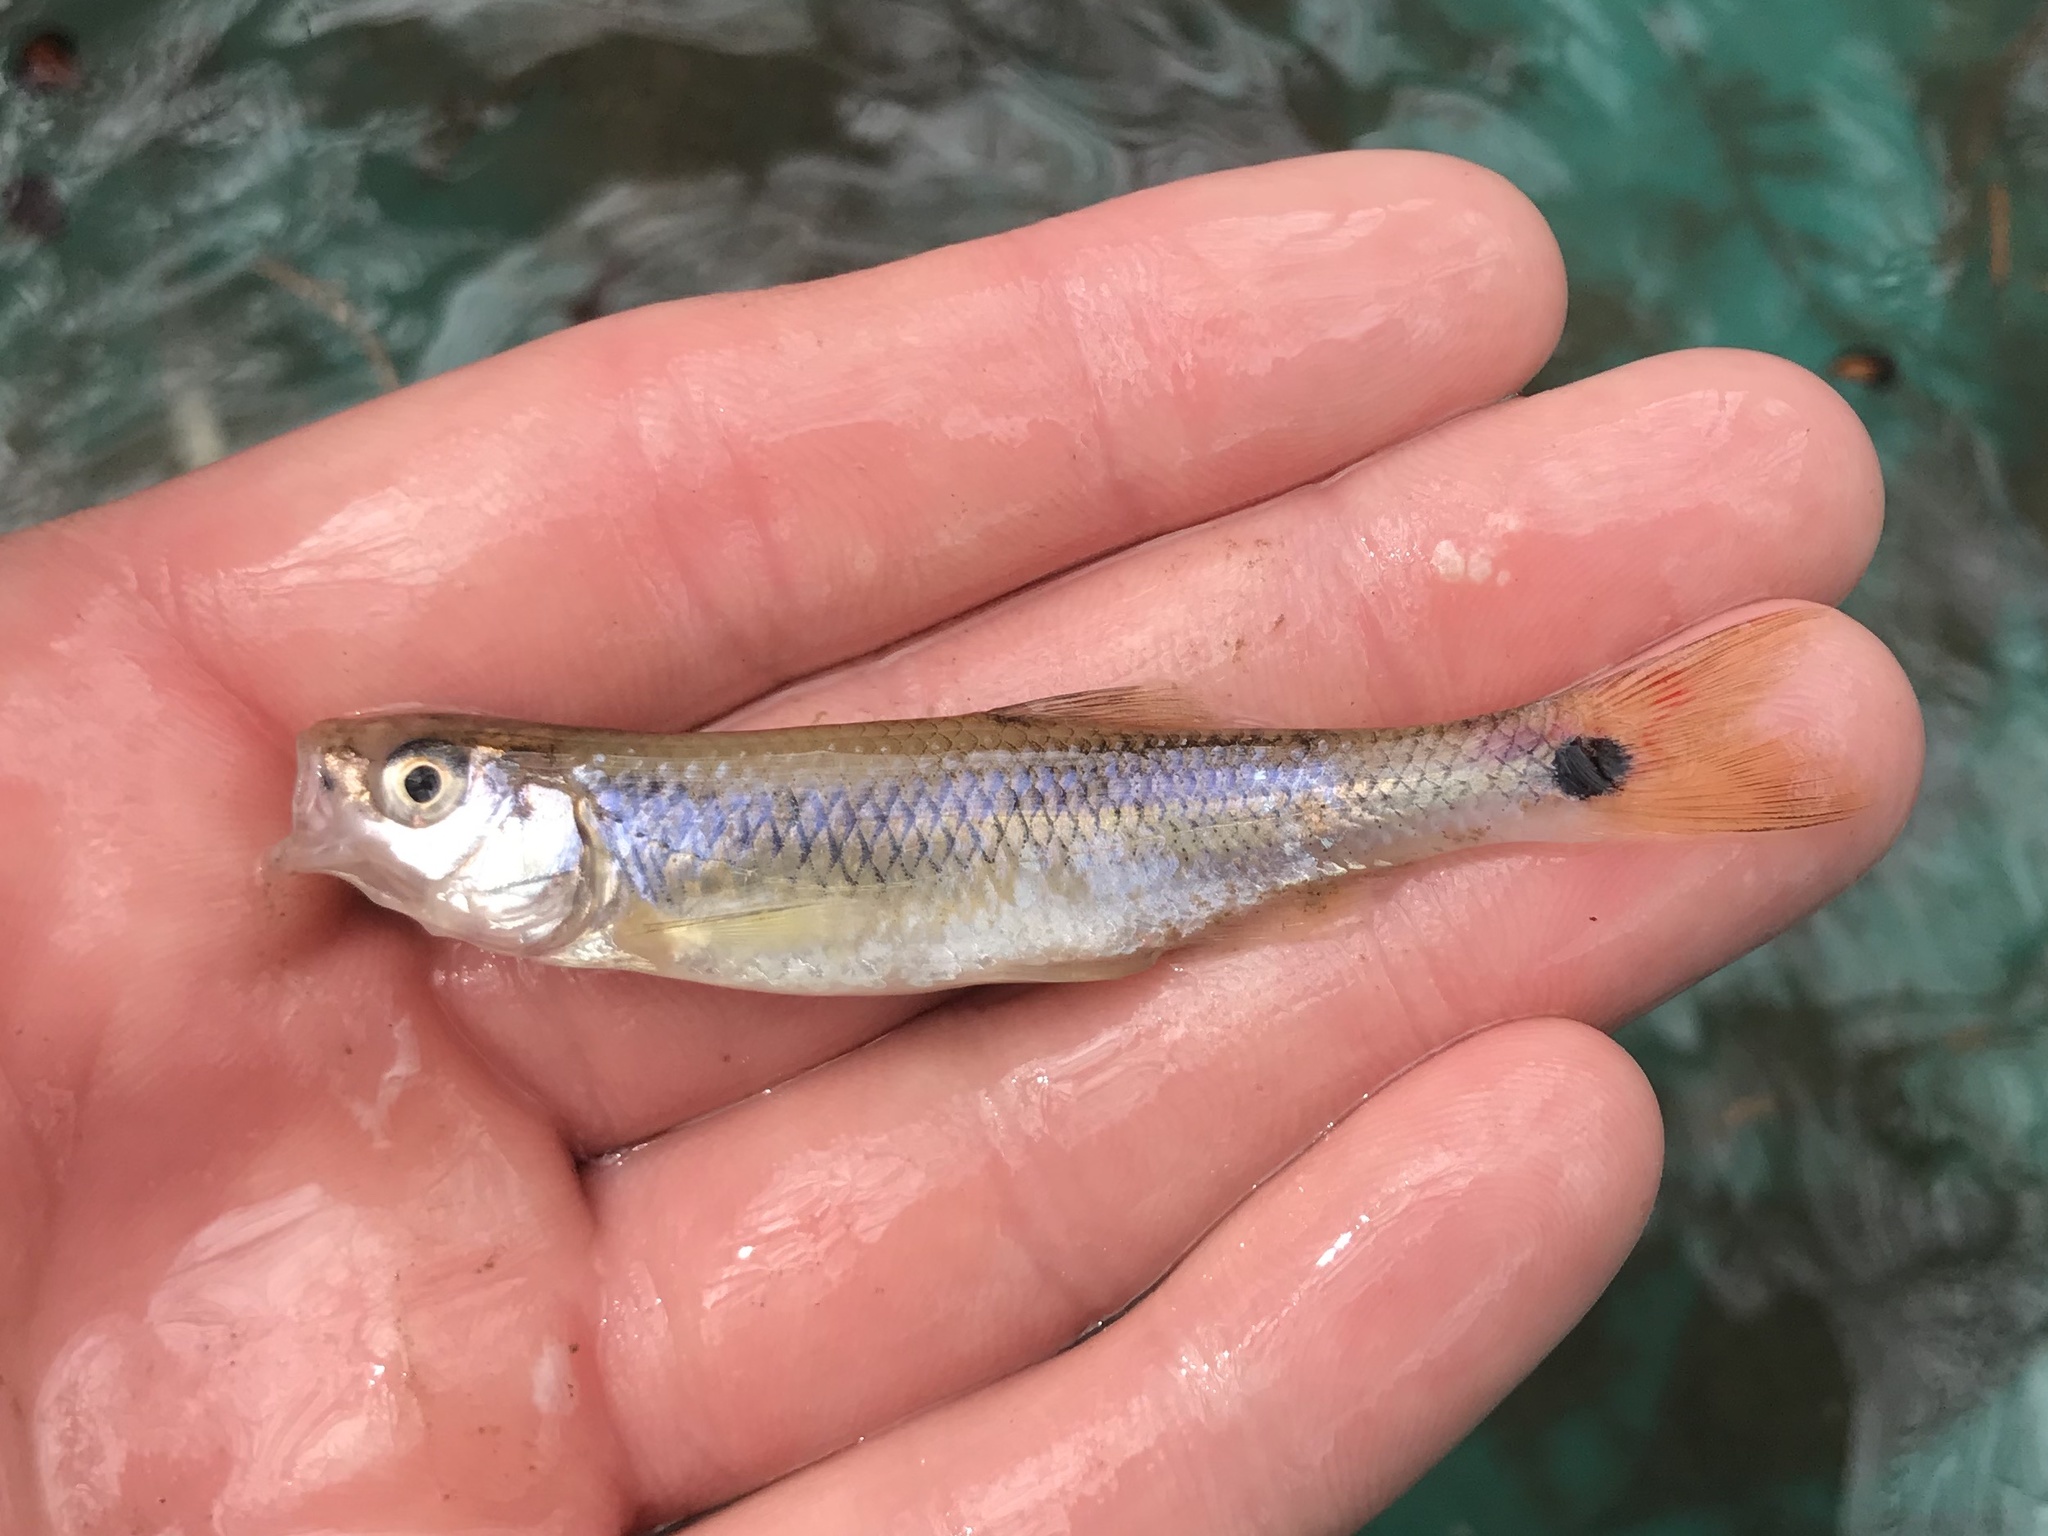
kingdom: Animalia
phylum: Chordata
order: Cypriniformes
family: Cyprinidae
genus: Cyprinella
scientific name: Cyprinella venusta
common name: Blacktail shiner
